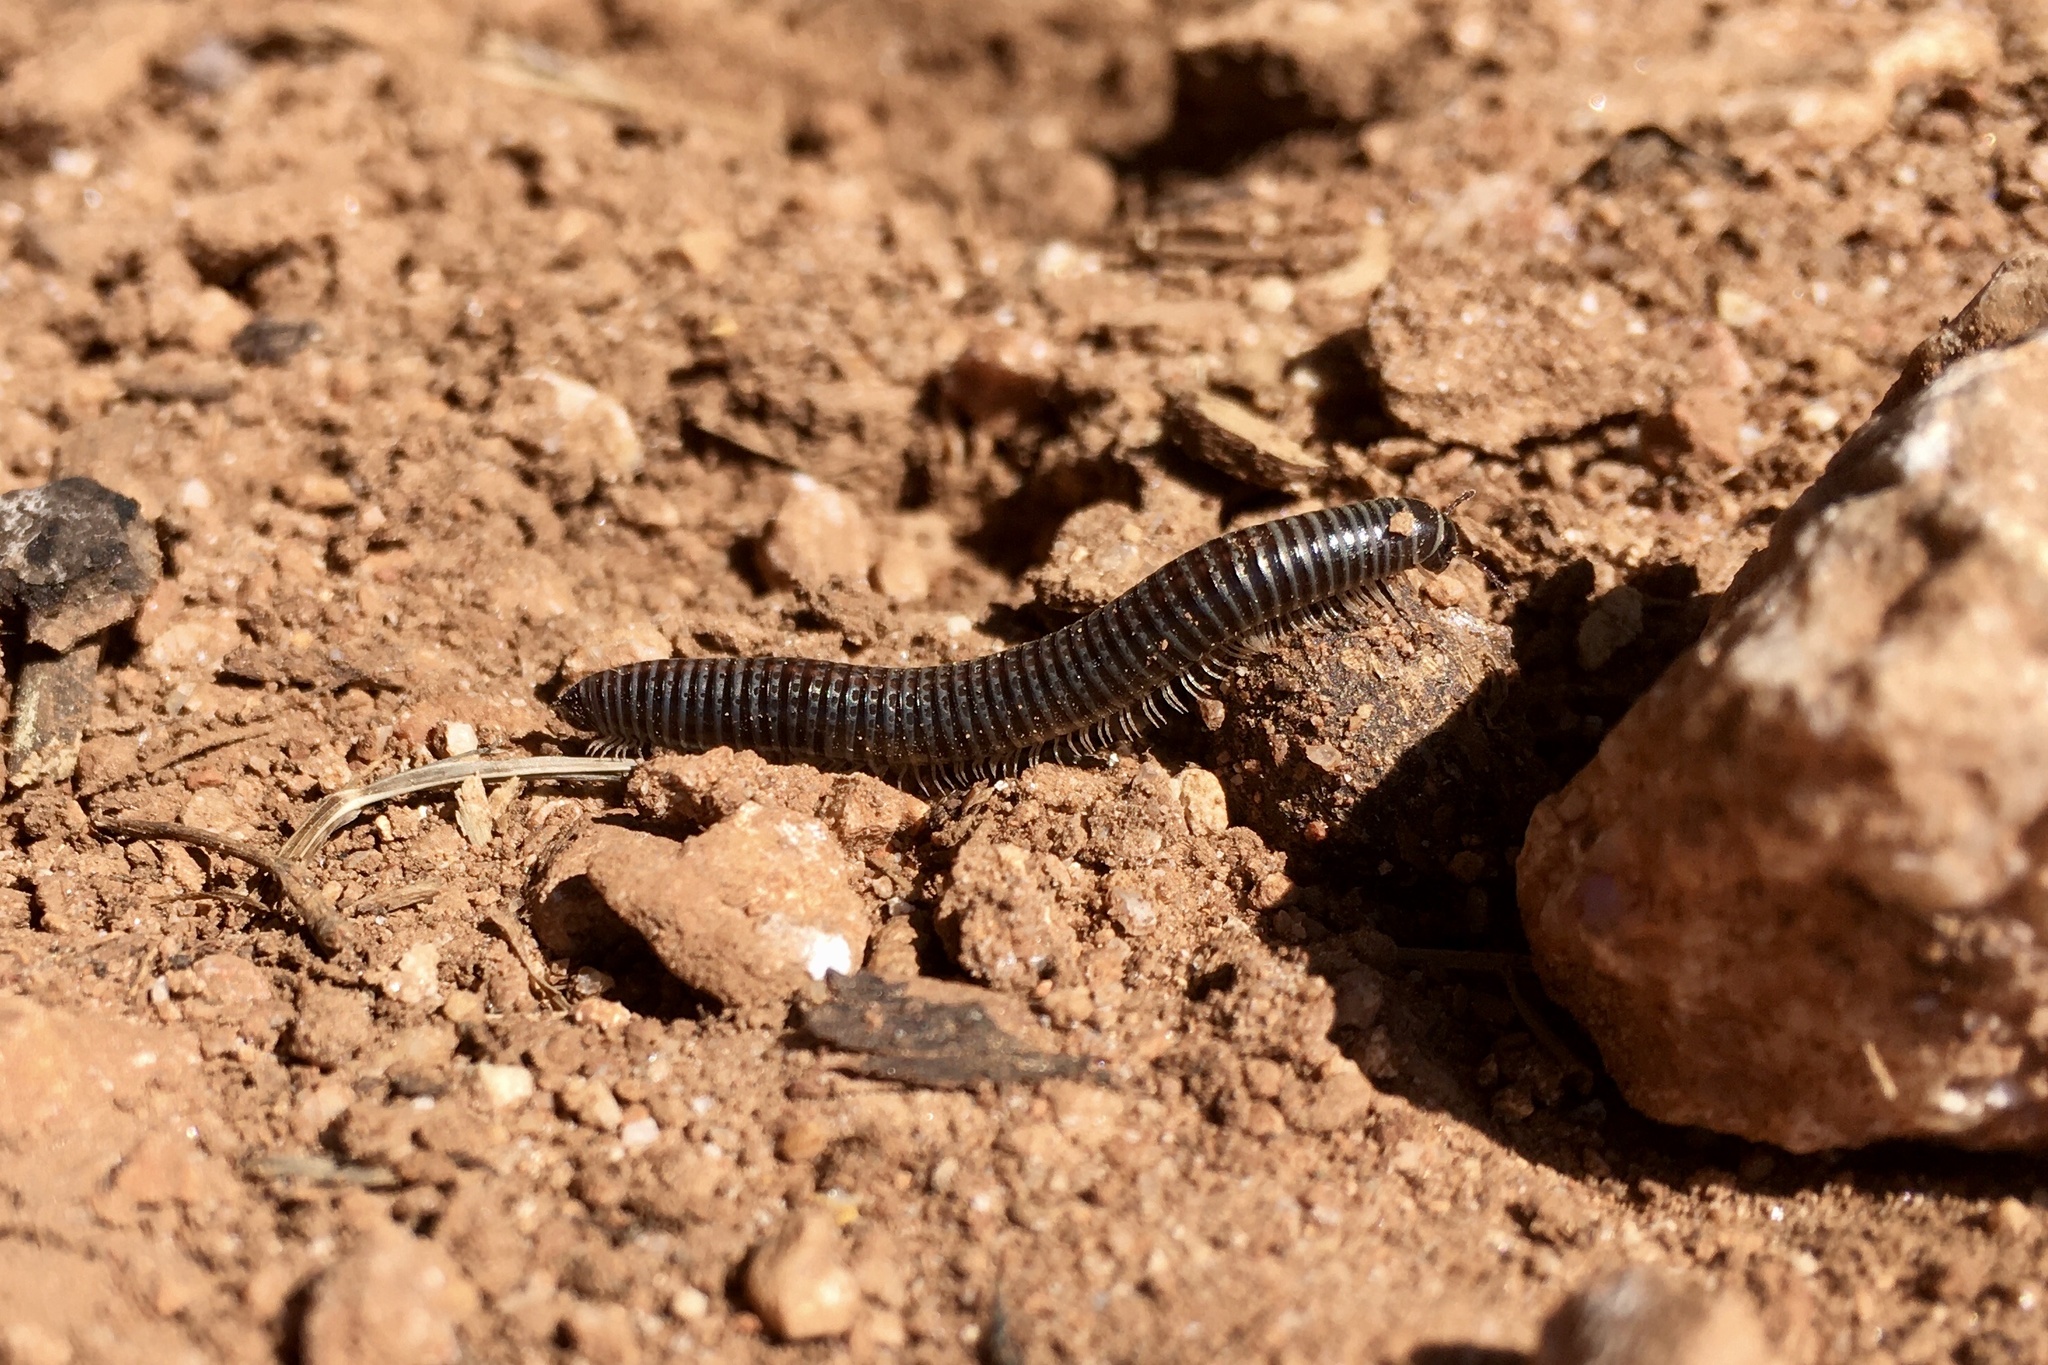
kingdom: Animalia
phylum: Arthropoda
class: Diplopoda
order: Julida
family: Julidae
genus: Ommatoiulus
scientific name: Ommatoiulus sabulosus
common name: Striped millipede
